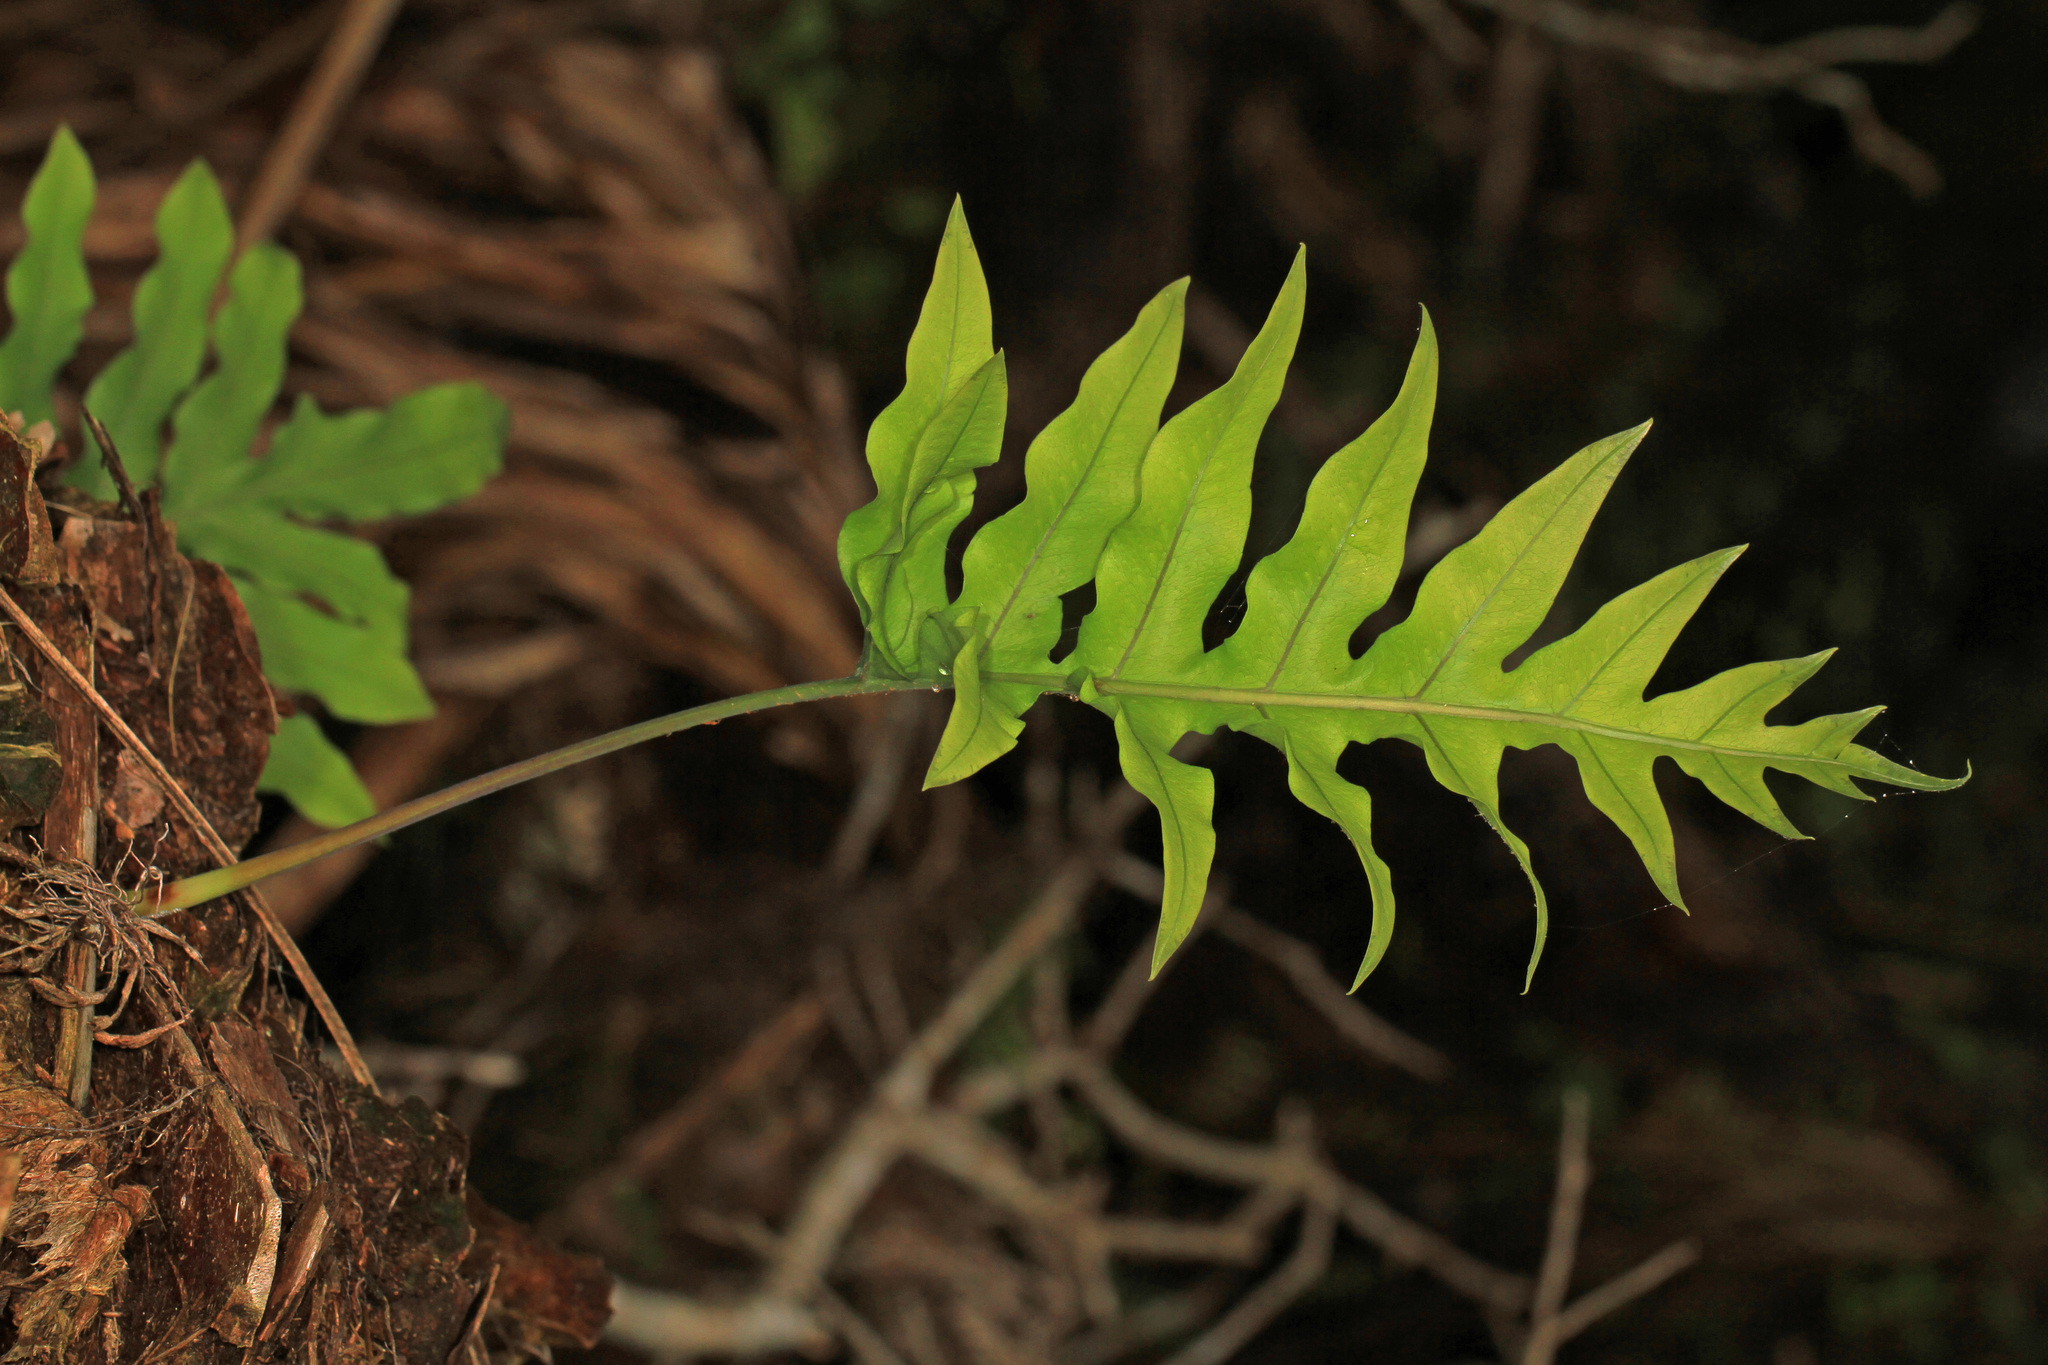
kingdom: Plantae
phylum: Tracheophyta
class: Polypodiopsida
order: Polypodiales
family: Polypodiaceae
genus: Phlebodium
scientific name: Phlebodium aureum
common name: Gold-foot fern
